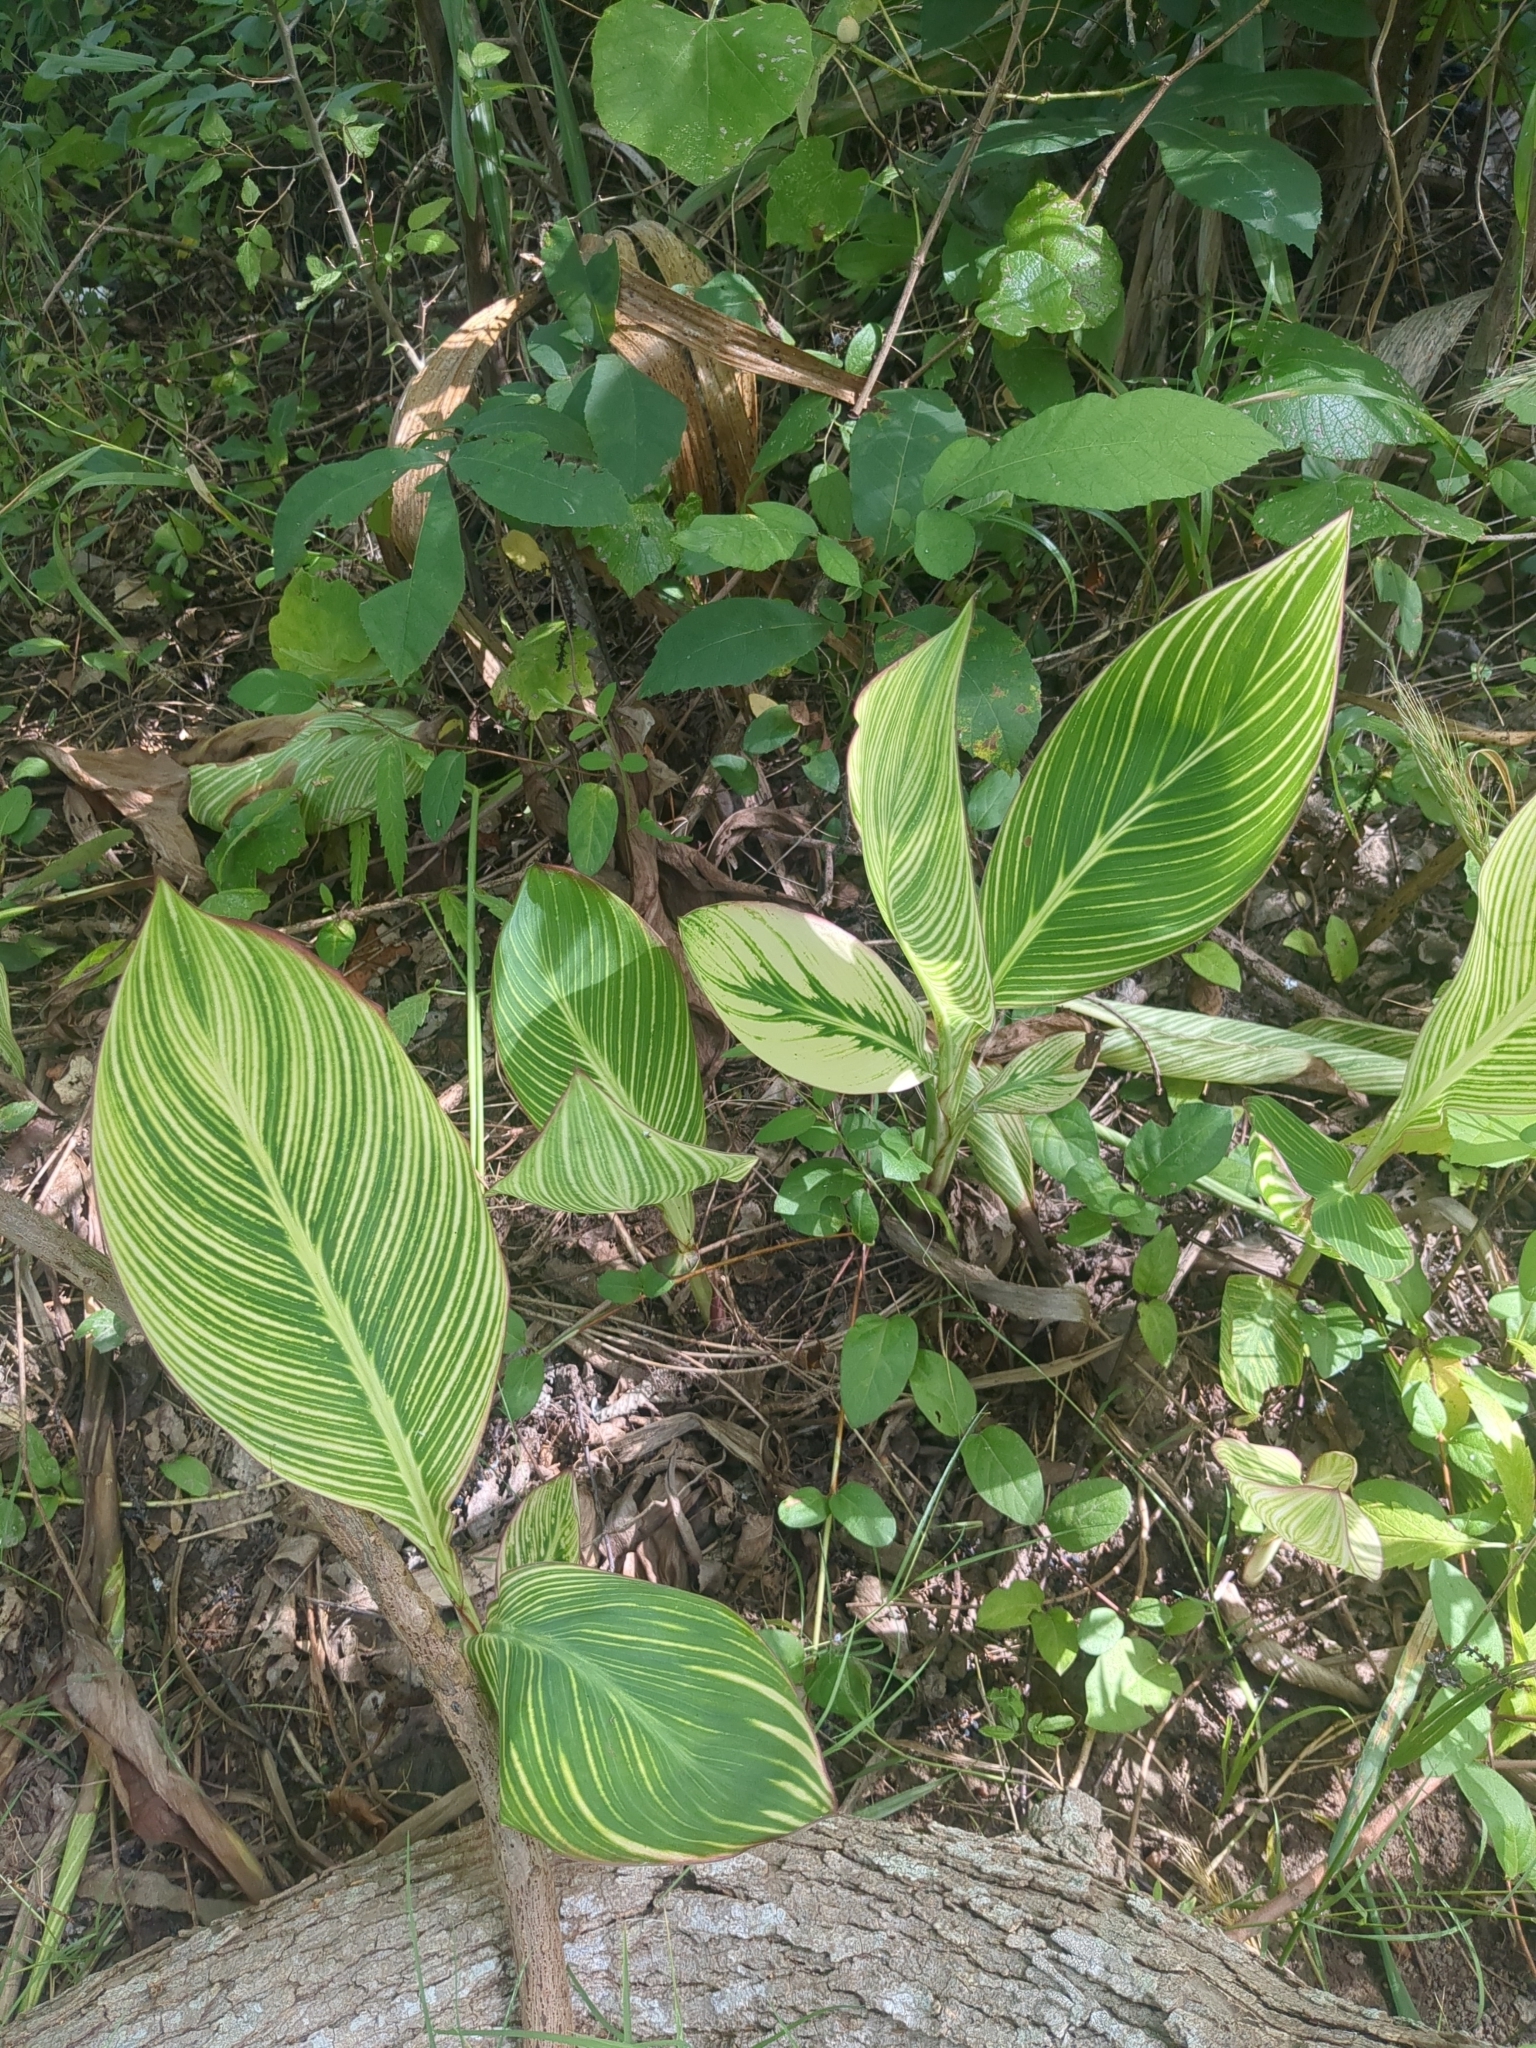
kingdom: Plantae
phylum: Tracheophyta
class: Liliopsida
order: Zingiberales
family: Cannaceae
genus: Canna
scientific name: Canna hybrida
